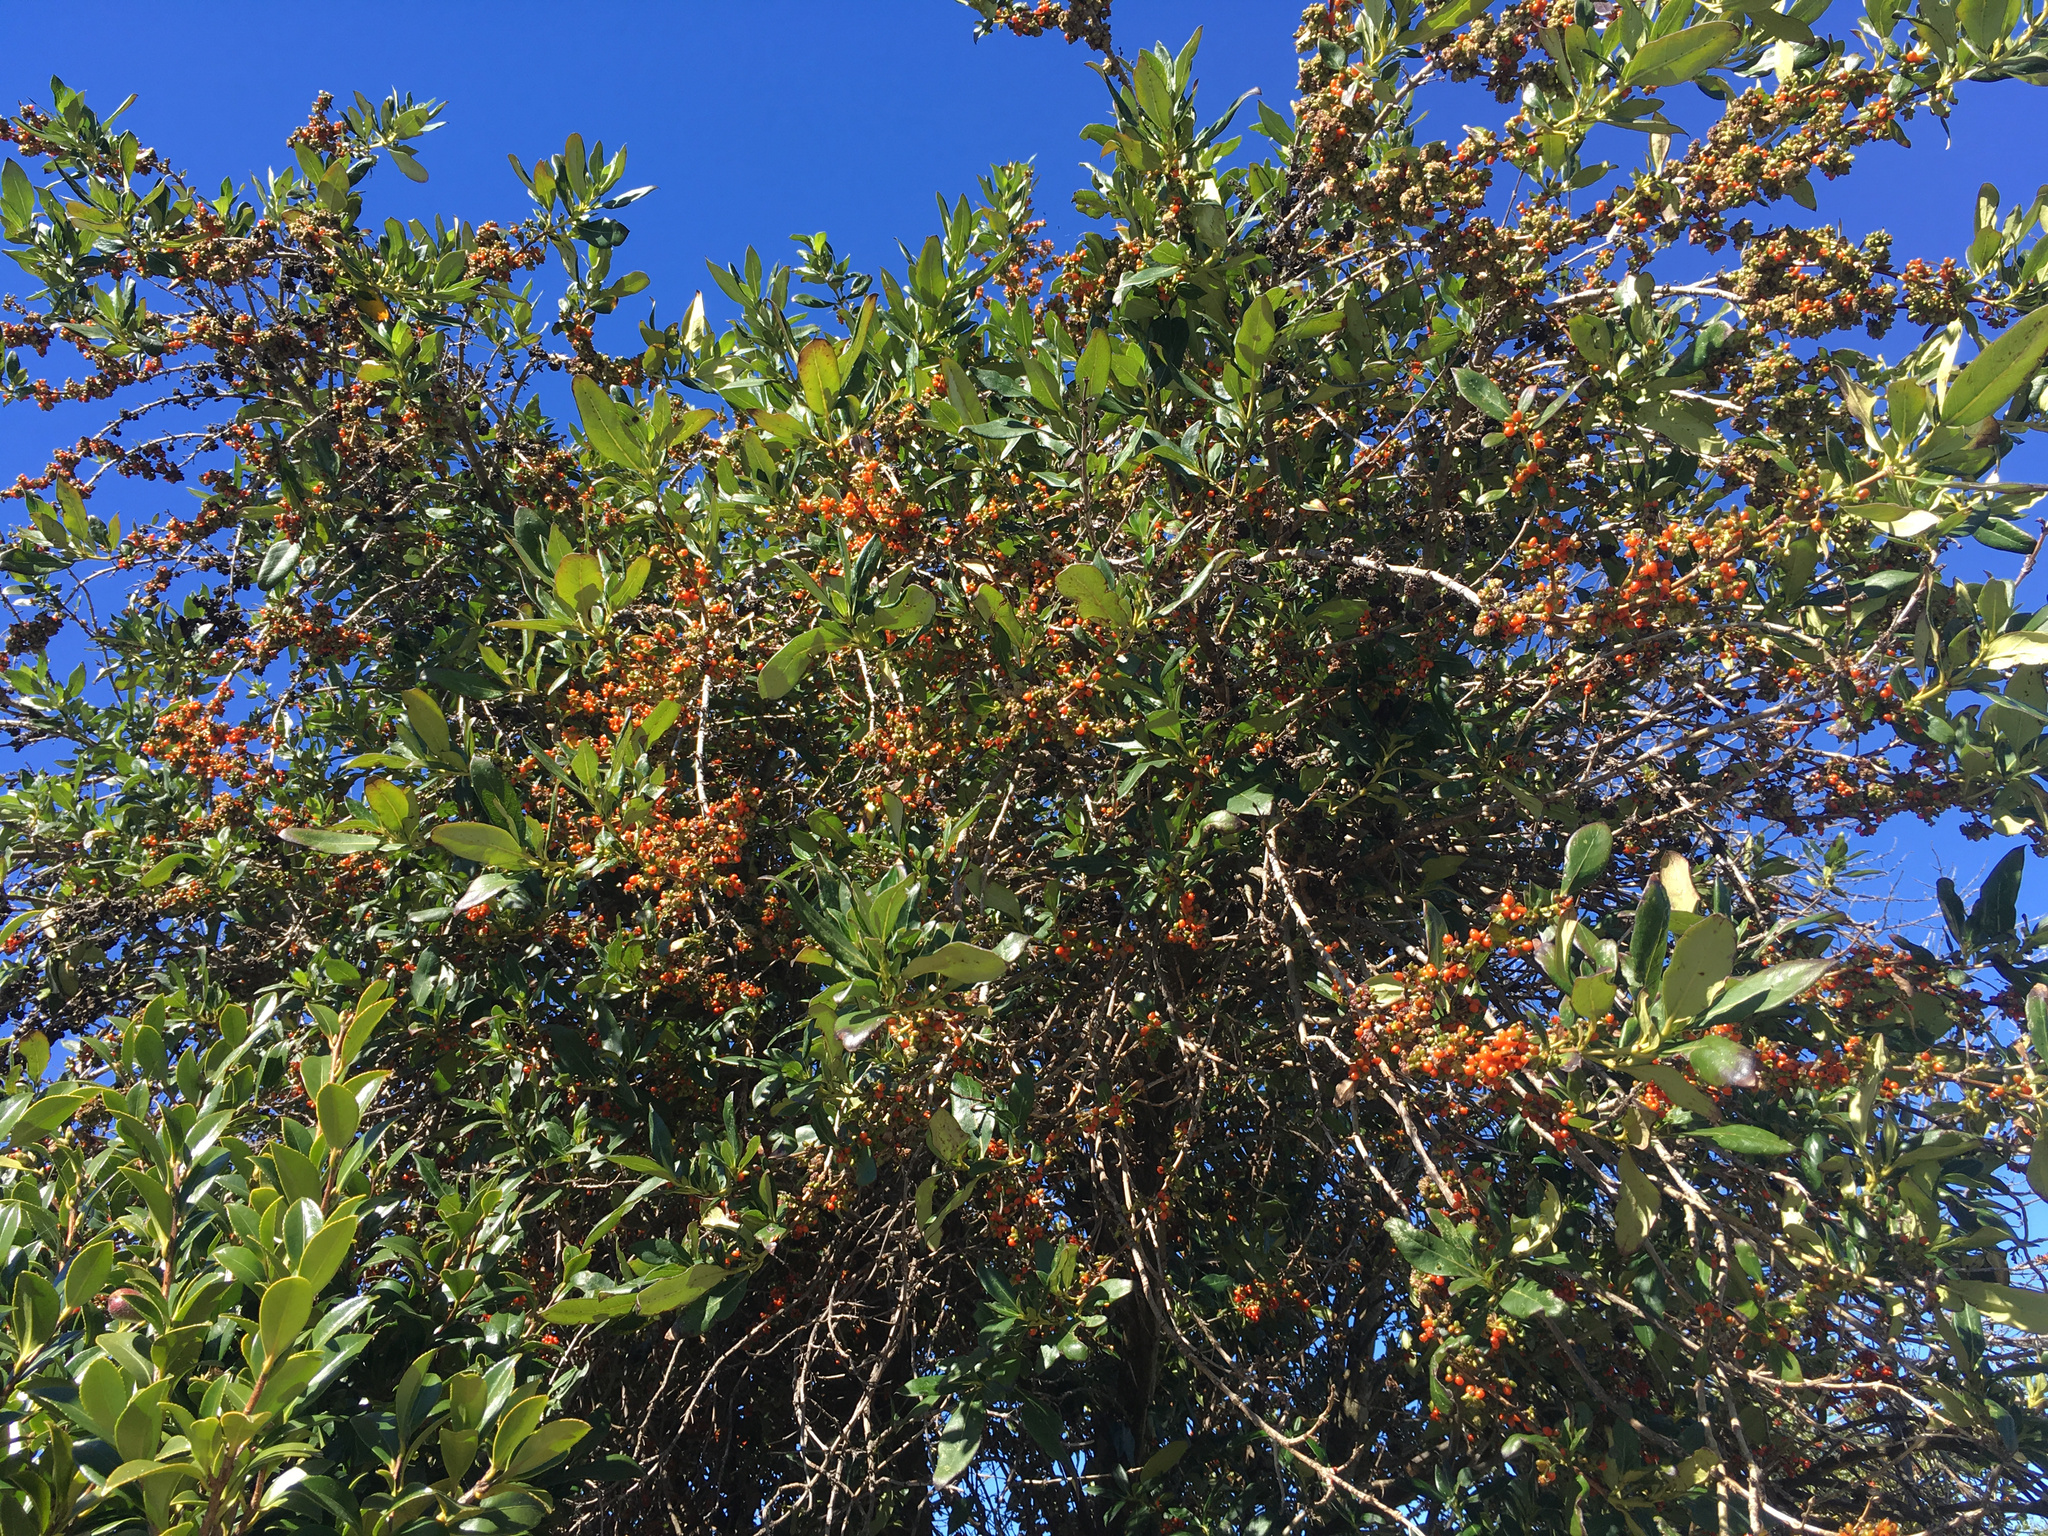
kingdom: Plantae
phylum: Tracheophyta
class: Magnoliopsida
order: Gentianales
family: Rubiaceae
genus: Coprosma
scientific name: Coprosma robusta
